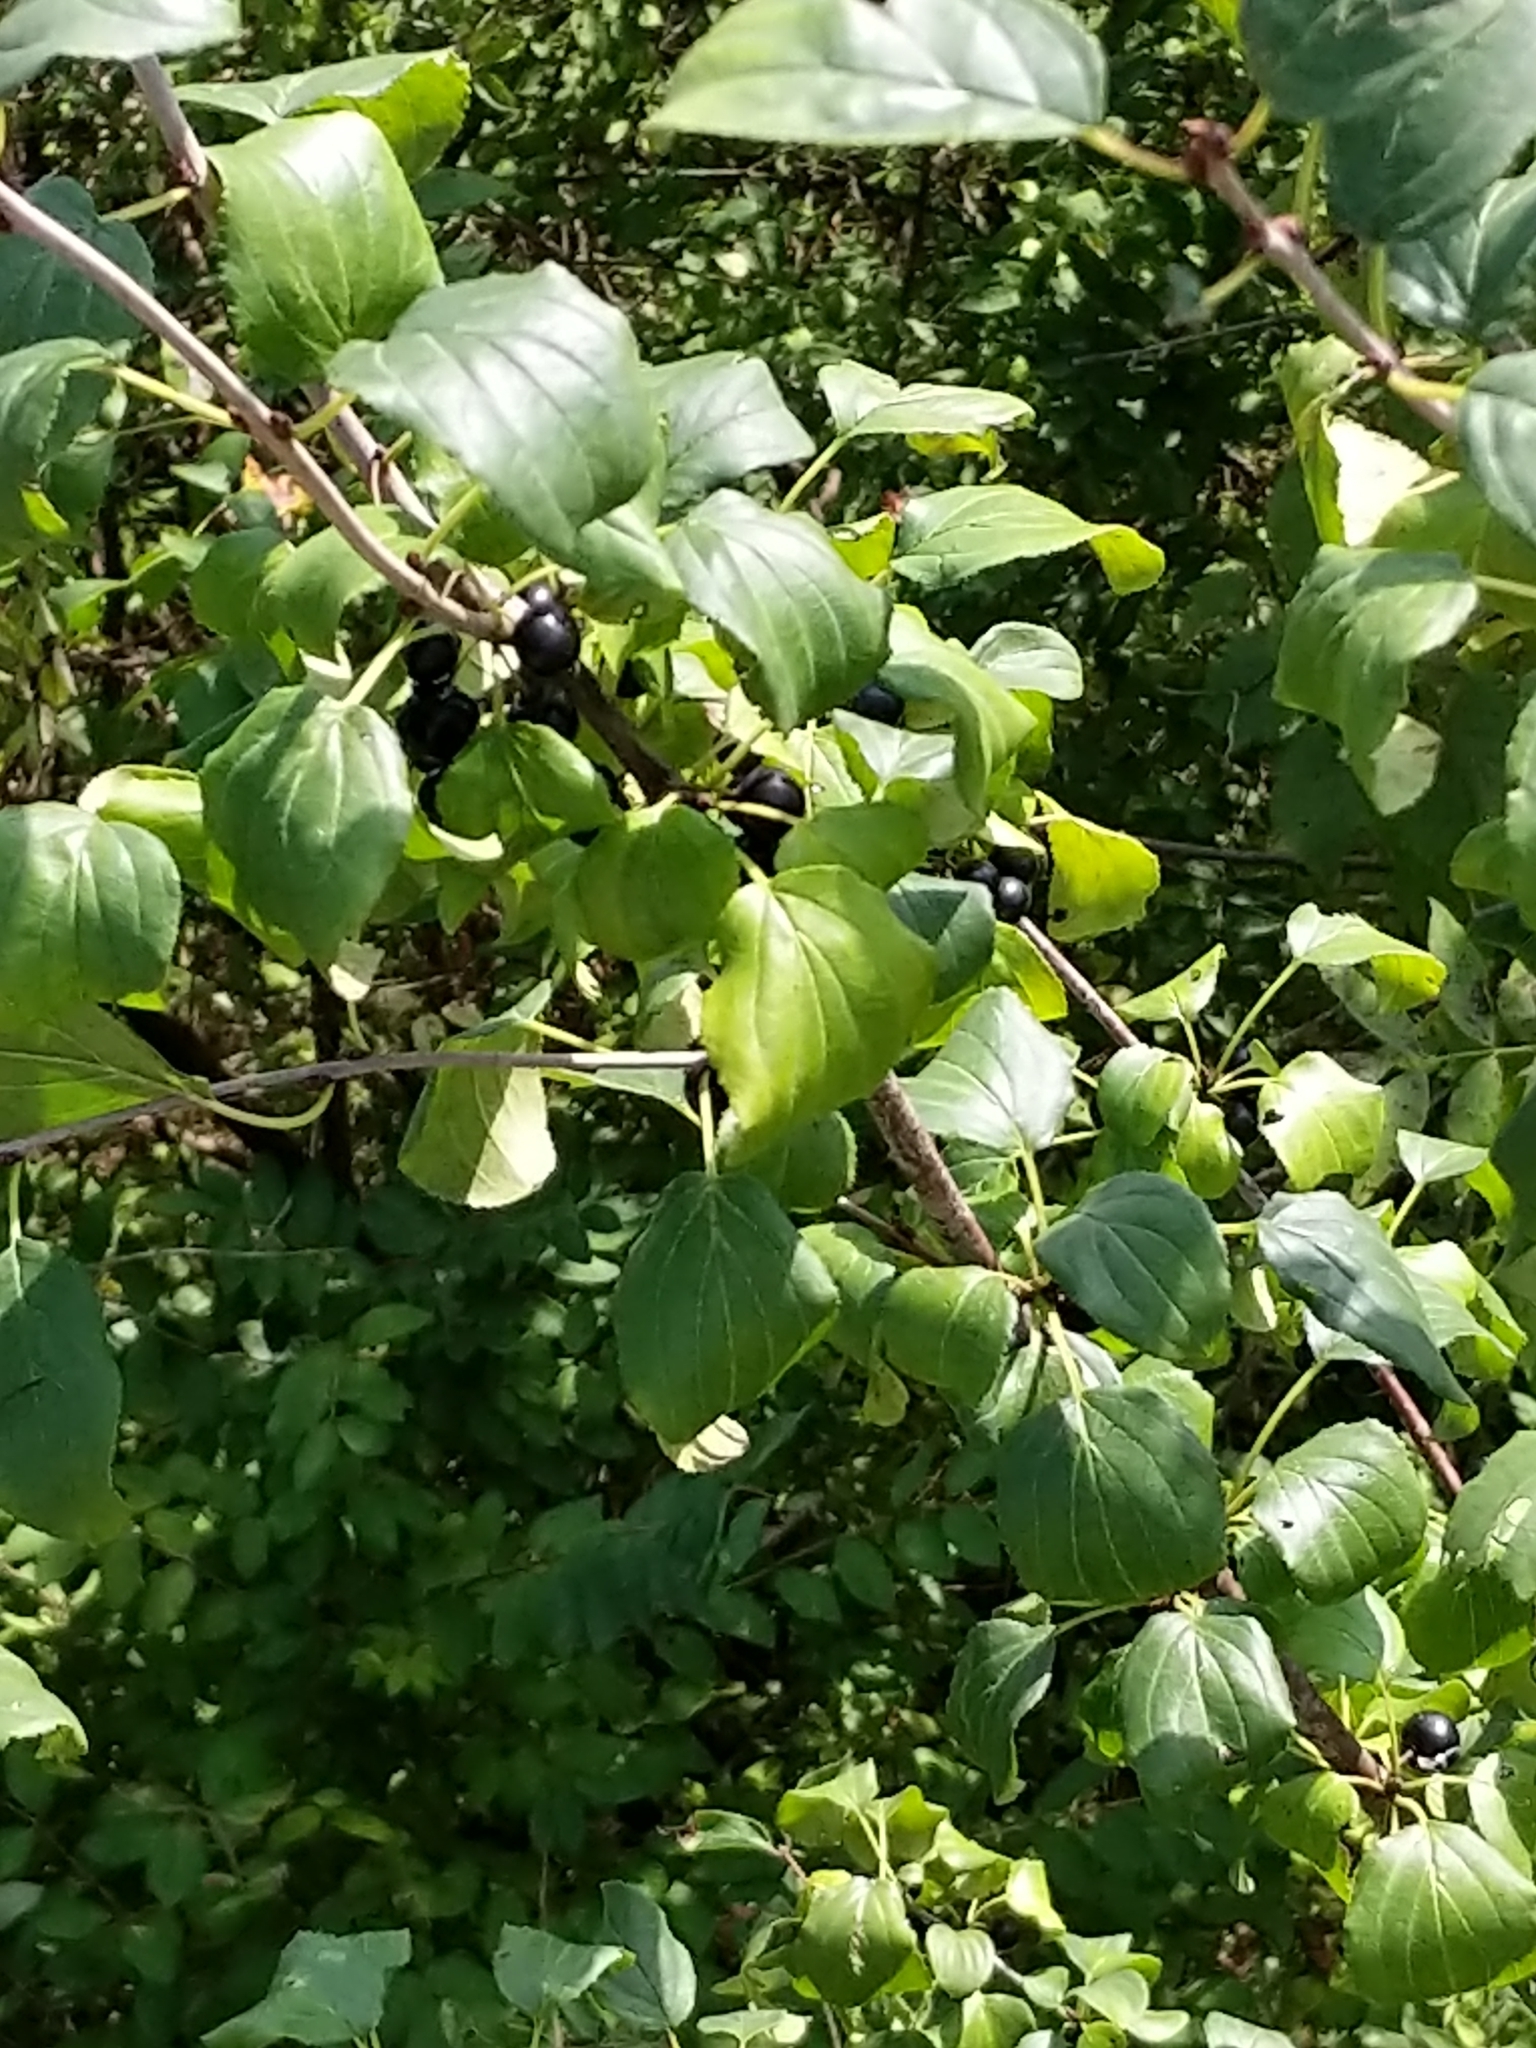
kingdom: Plantae
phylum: Tracheophyta
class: Magnoliopsida
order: Rosales
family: Rhamnaceae
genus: Rhamnus
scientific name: Rhamnus cathartica
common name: Common buckthorn
